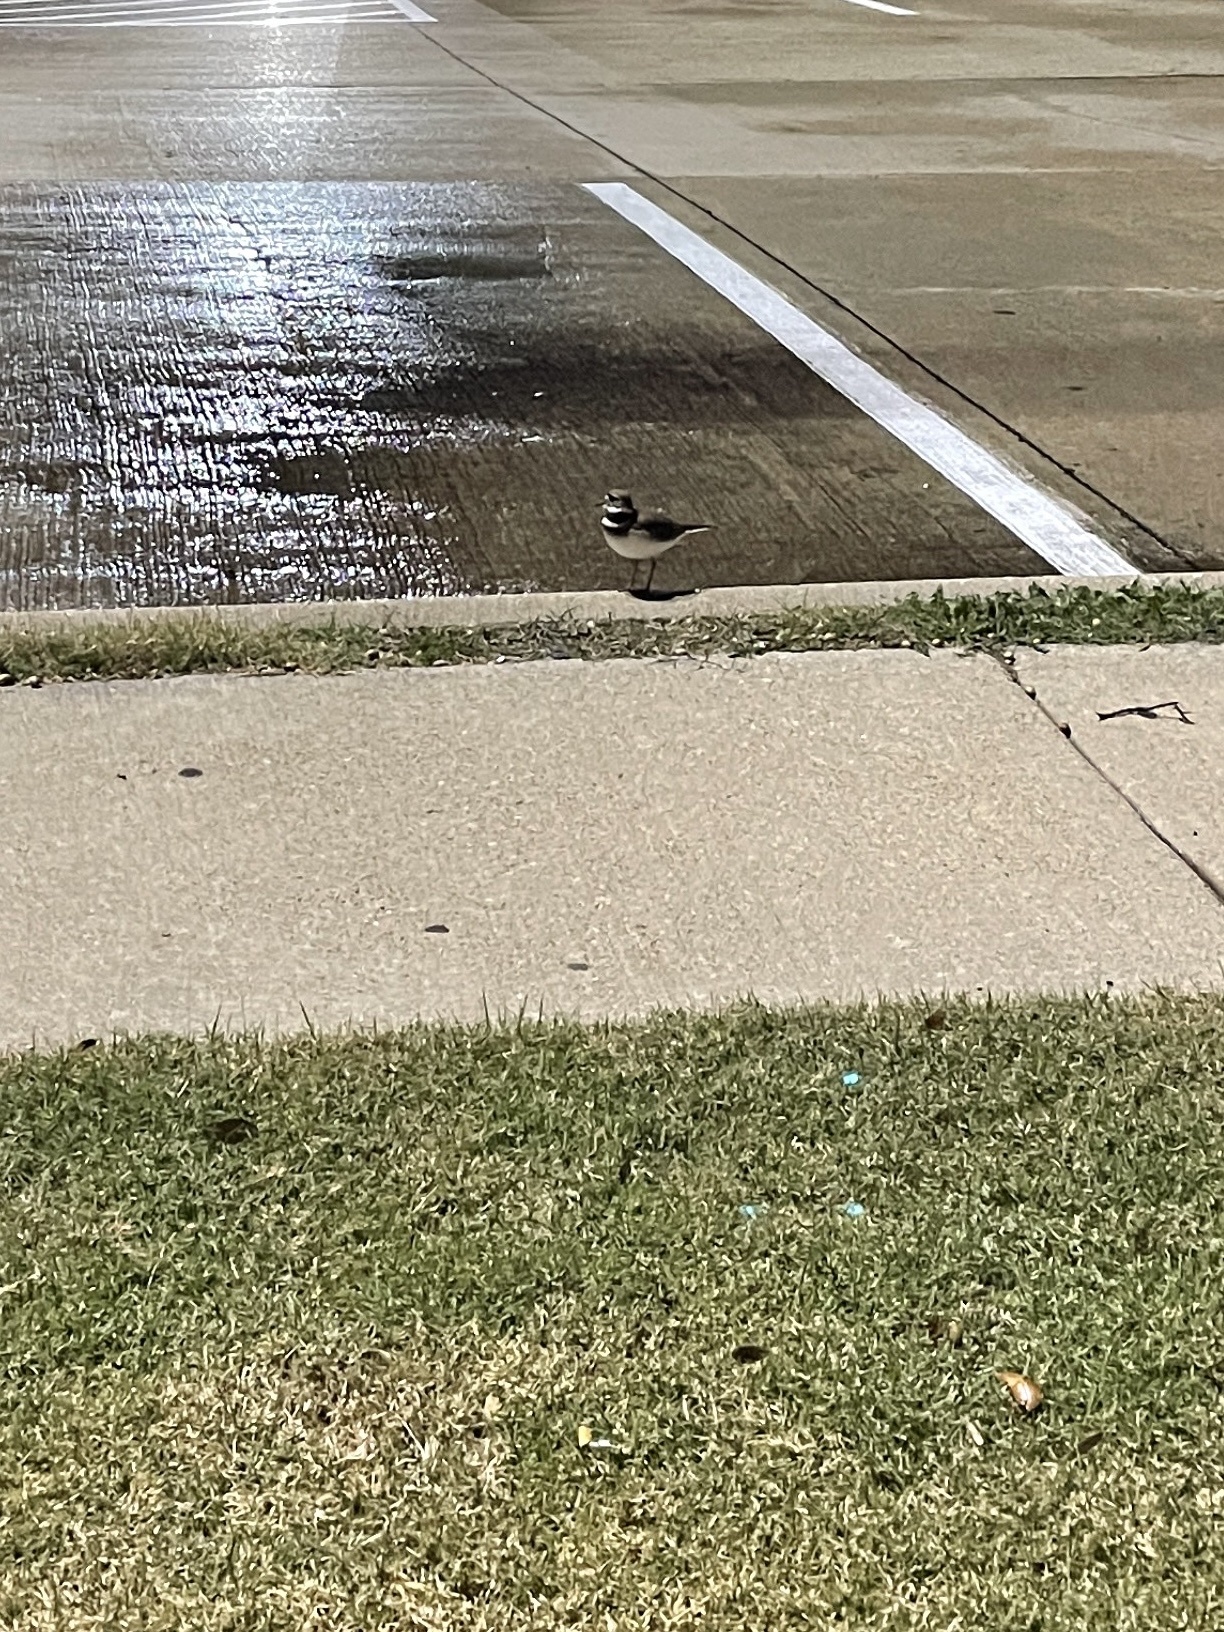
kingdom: Animalia
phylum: Chordata
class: Aves
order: Charadriiformes
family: Charadriidae
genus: Charadrius
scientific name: Charadrius vociferus
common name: Killdeer
